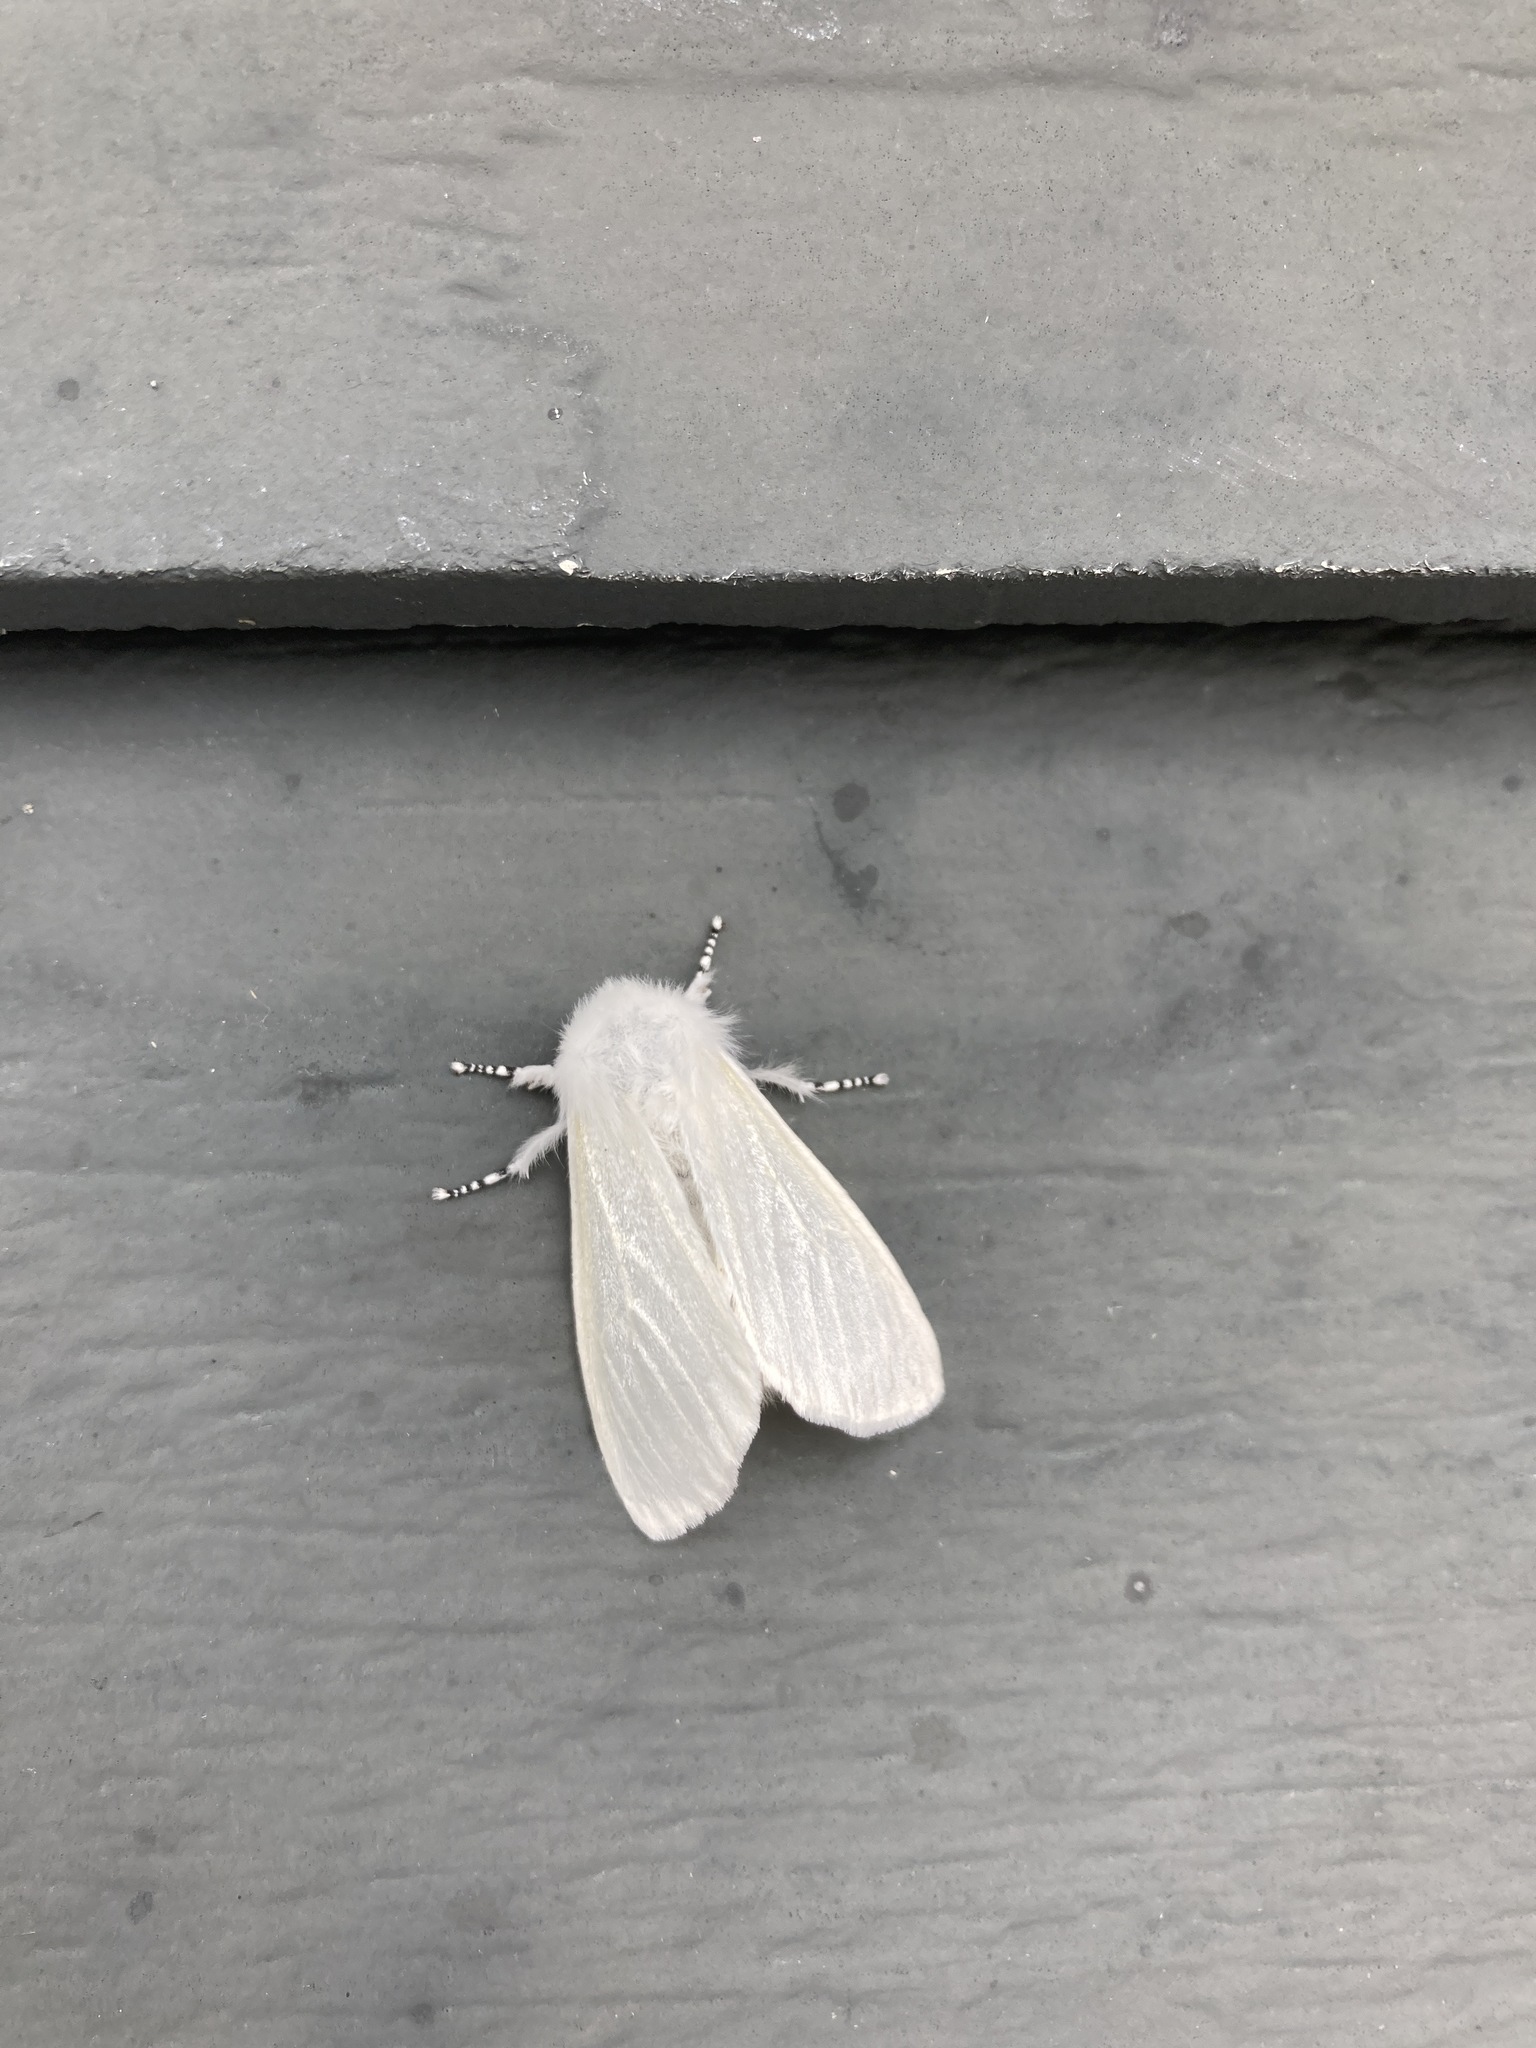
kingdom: Animalia
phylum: Arthropoda
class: Insecta
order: Lepidoptera
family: Erebidae
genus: Leucoma
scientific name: Leucoma salicis
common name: White satin moth
